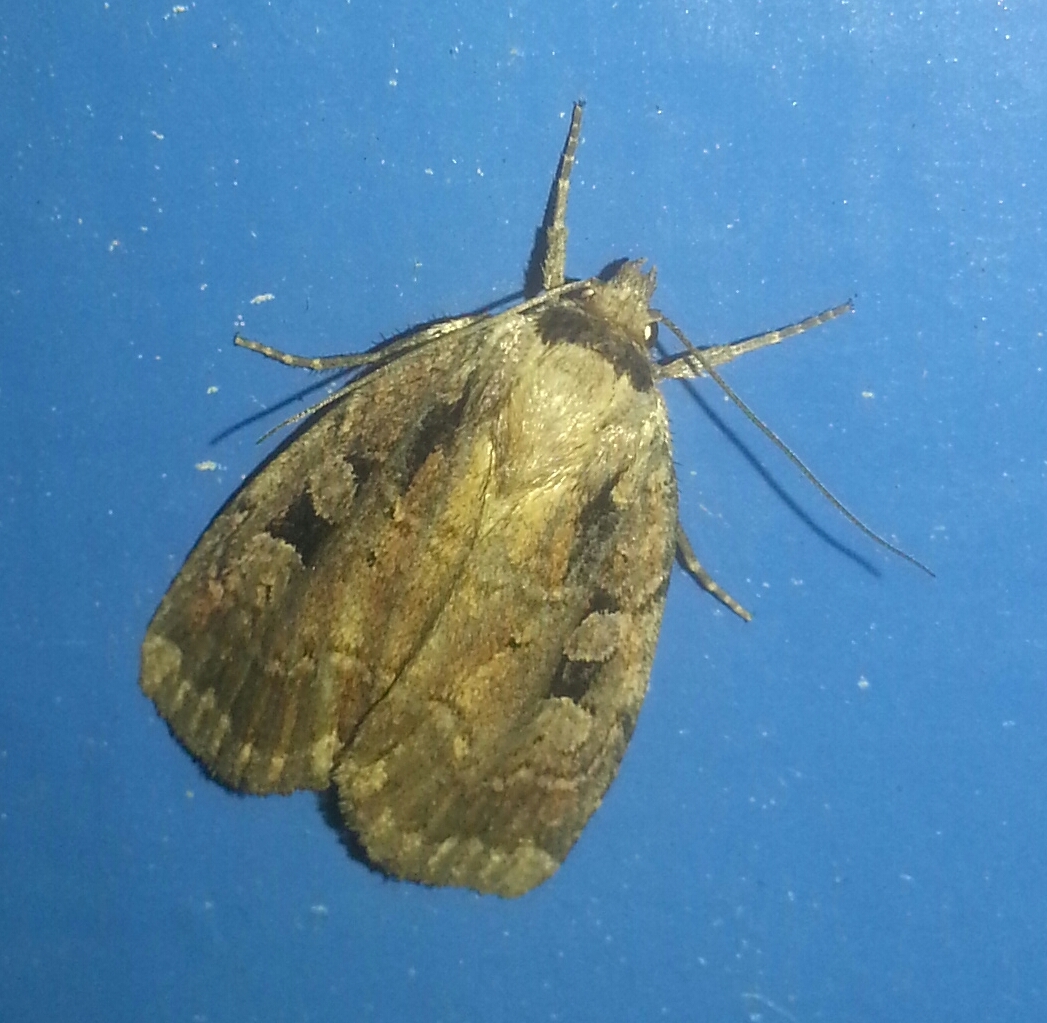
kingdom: Animalia
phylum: Arthropoda
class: Insecta
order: Lepidoptera
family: Noctuidae
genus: Eueretagrotis
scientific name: Eueretagrotis attentus
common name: Attentive dart
